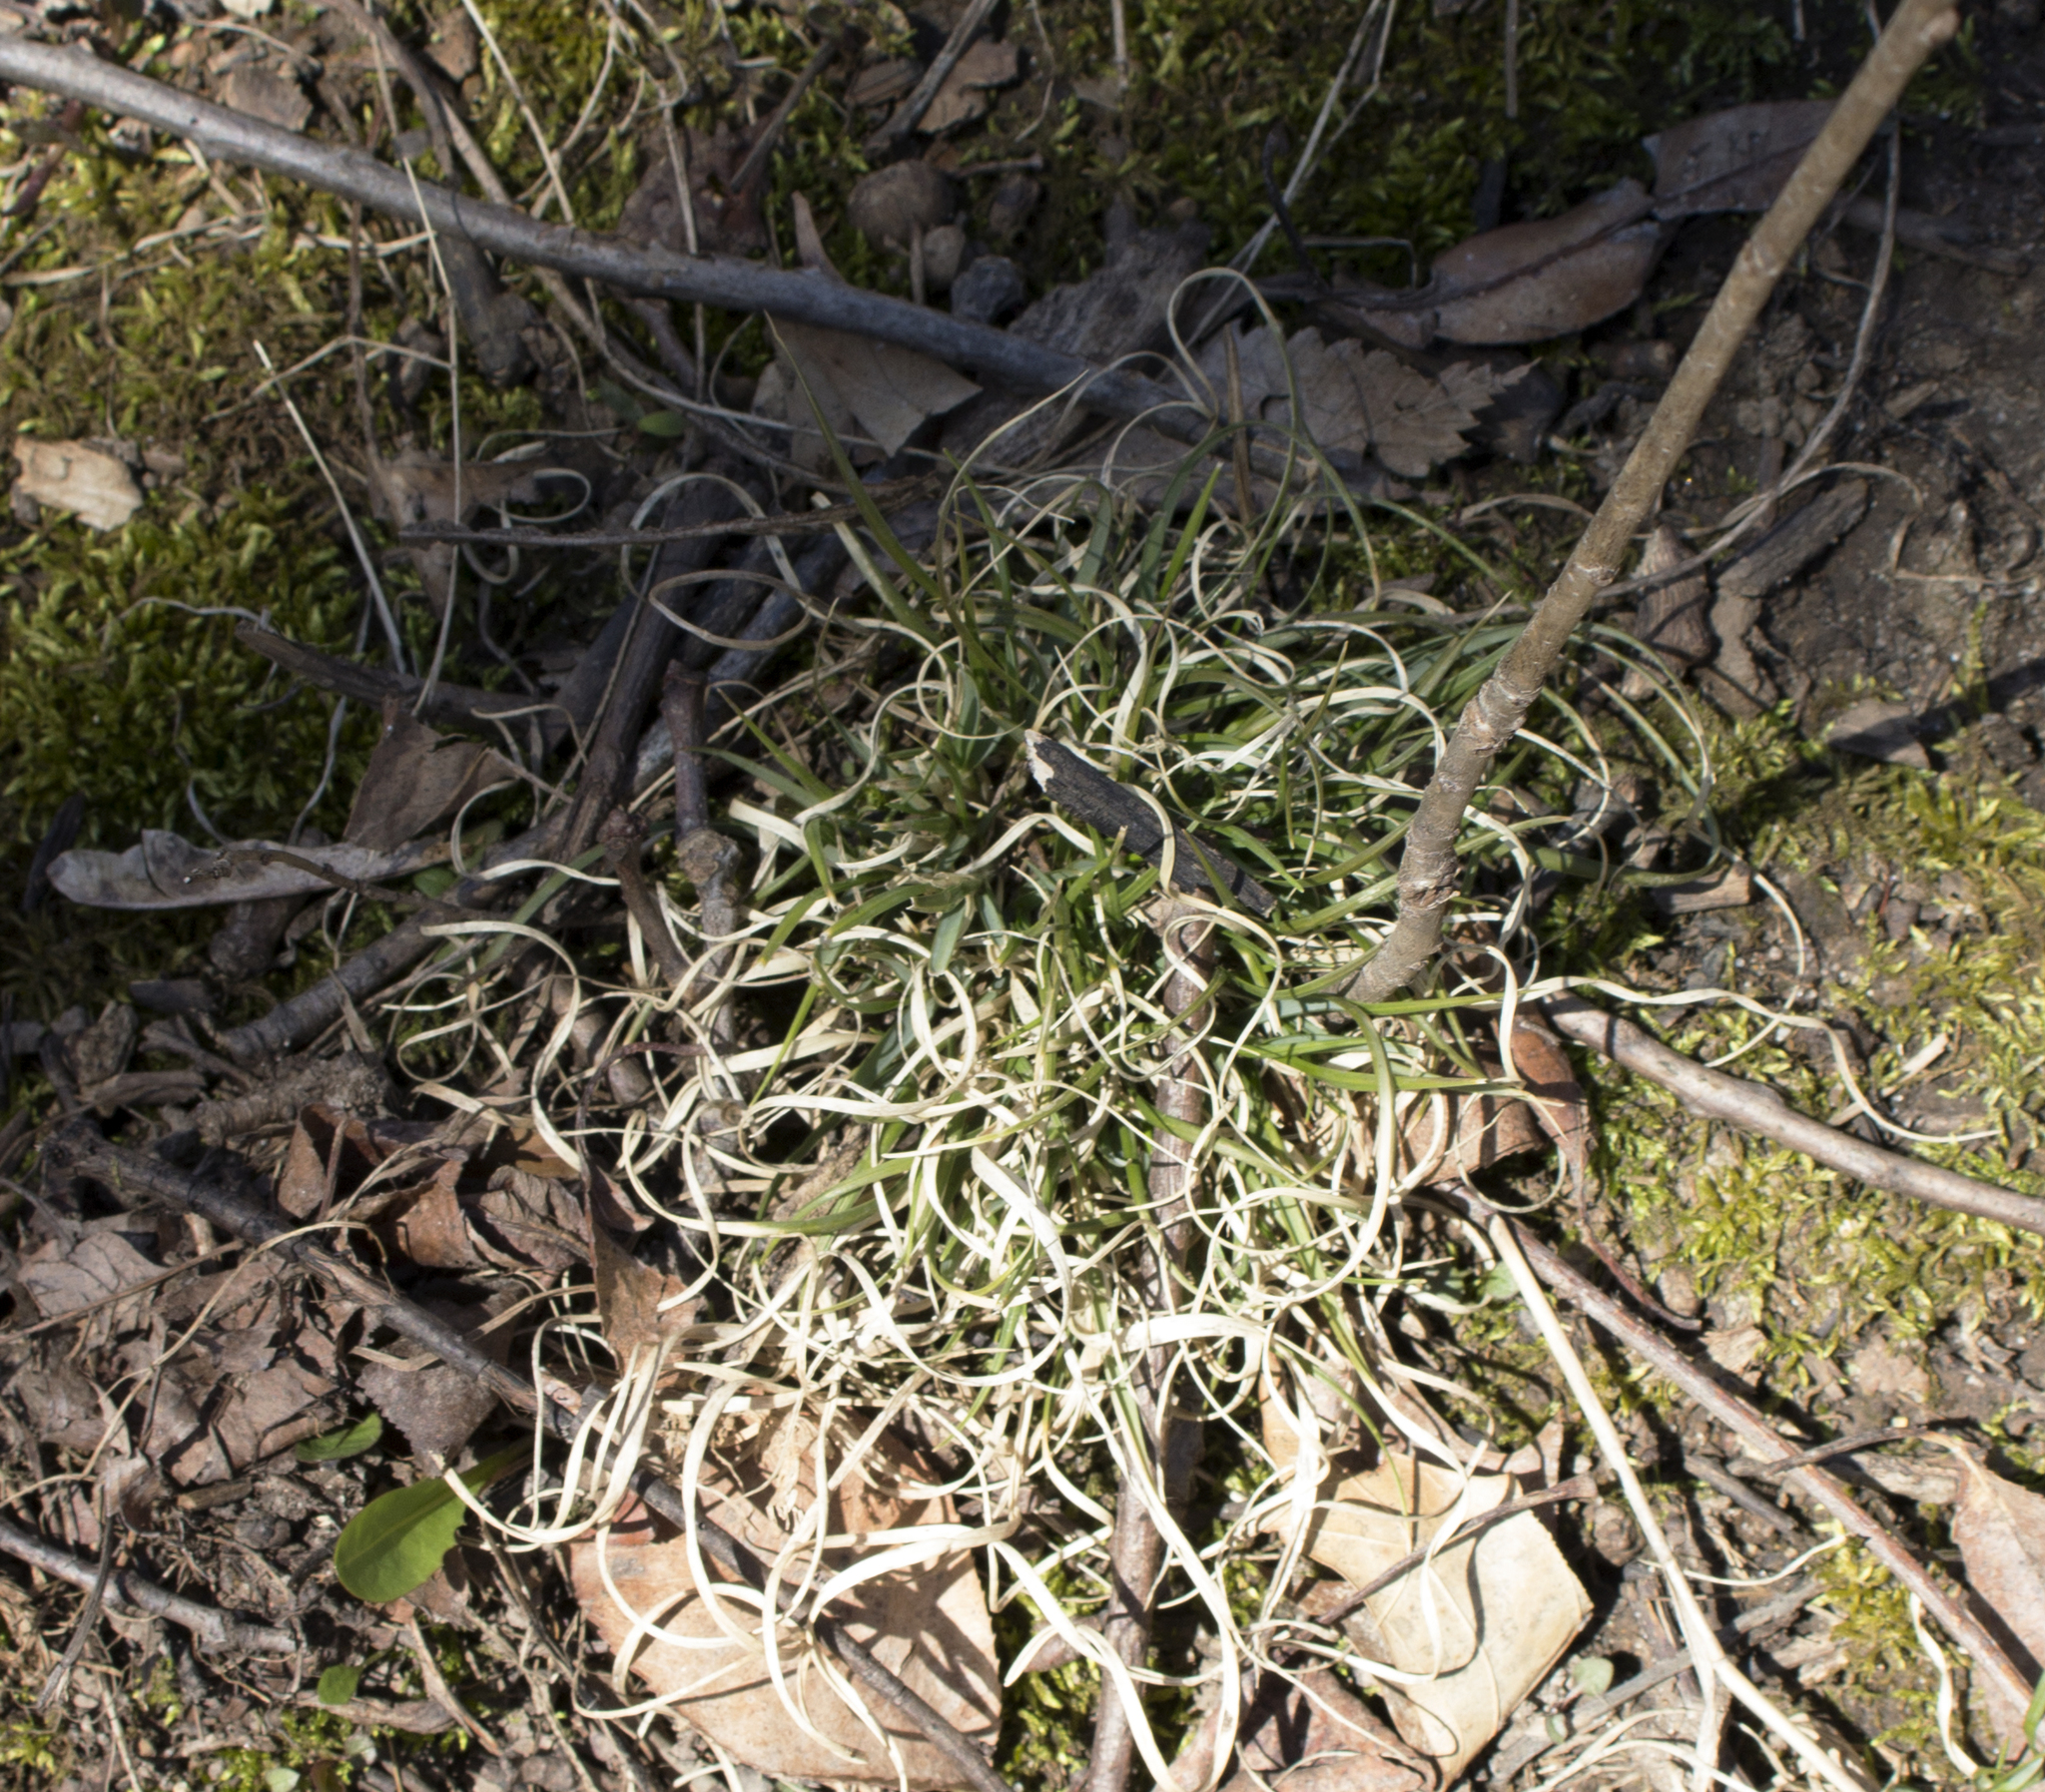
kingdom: Plantae
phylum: Tracheophyta
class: Liliopsida
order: Poales
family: Poaceae
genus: Danthonia
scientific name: Danthonia spicata
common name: Common wild oatgrass
